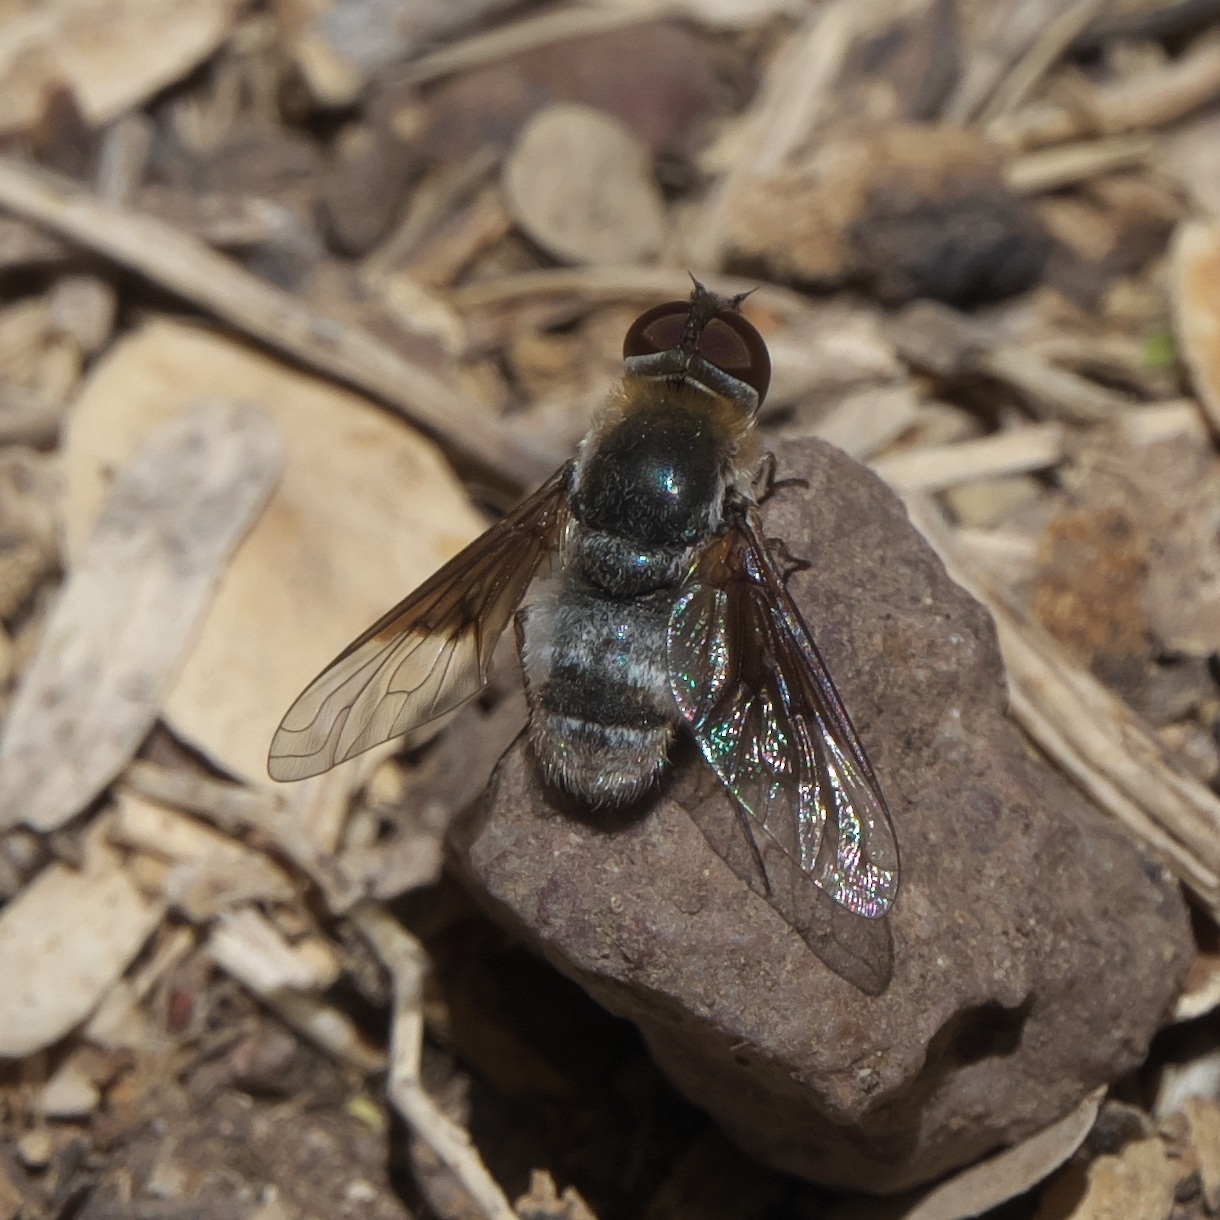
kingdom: Animalia
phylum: Arthropoda
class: Insecta
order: Diptera
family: Bombyliidae
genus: Paravilla
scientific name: Paravilla cunicula
